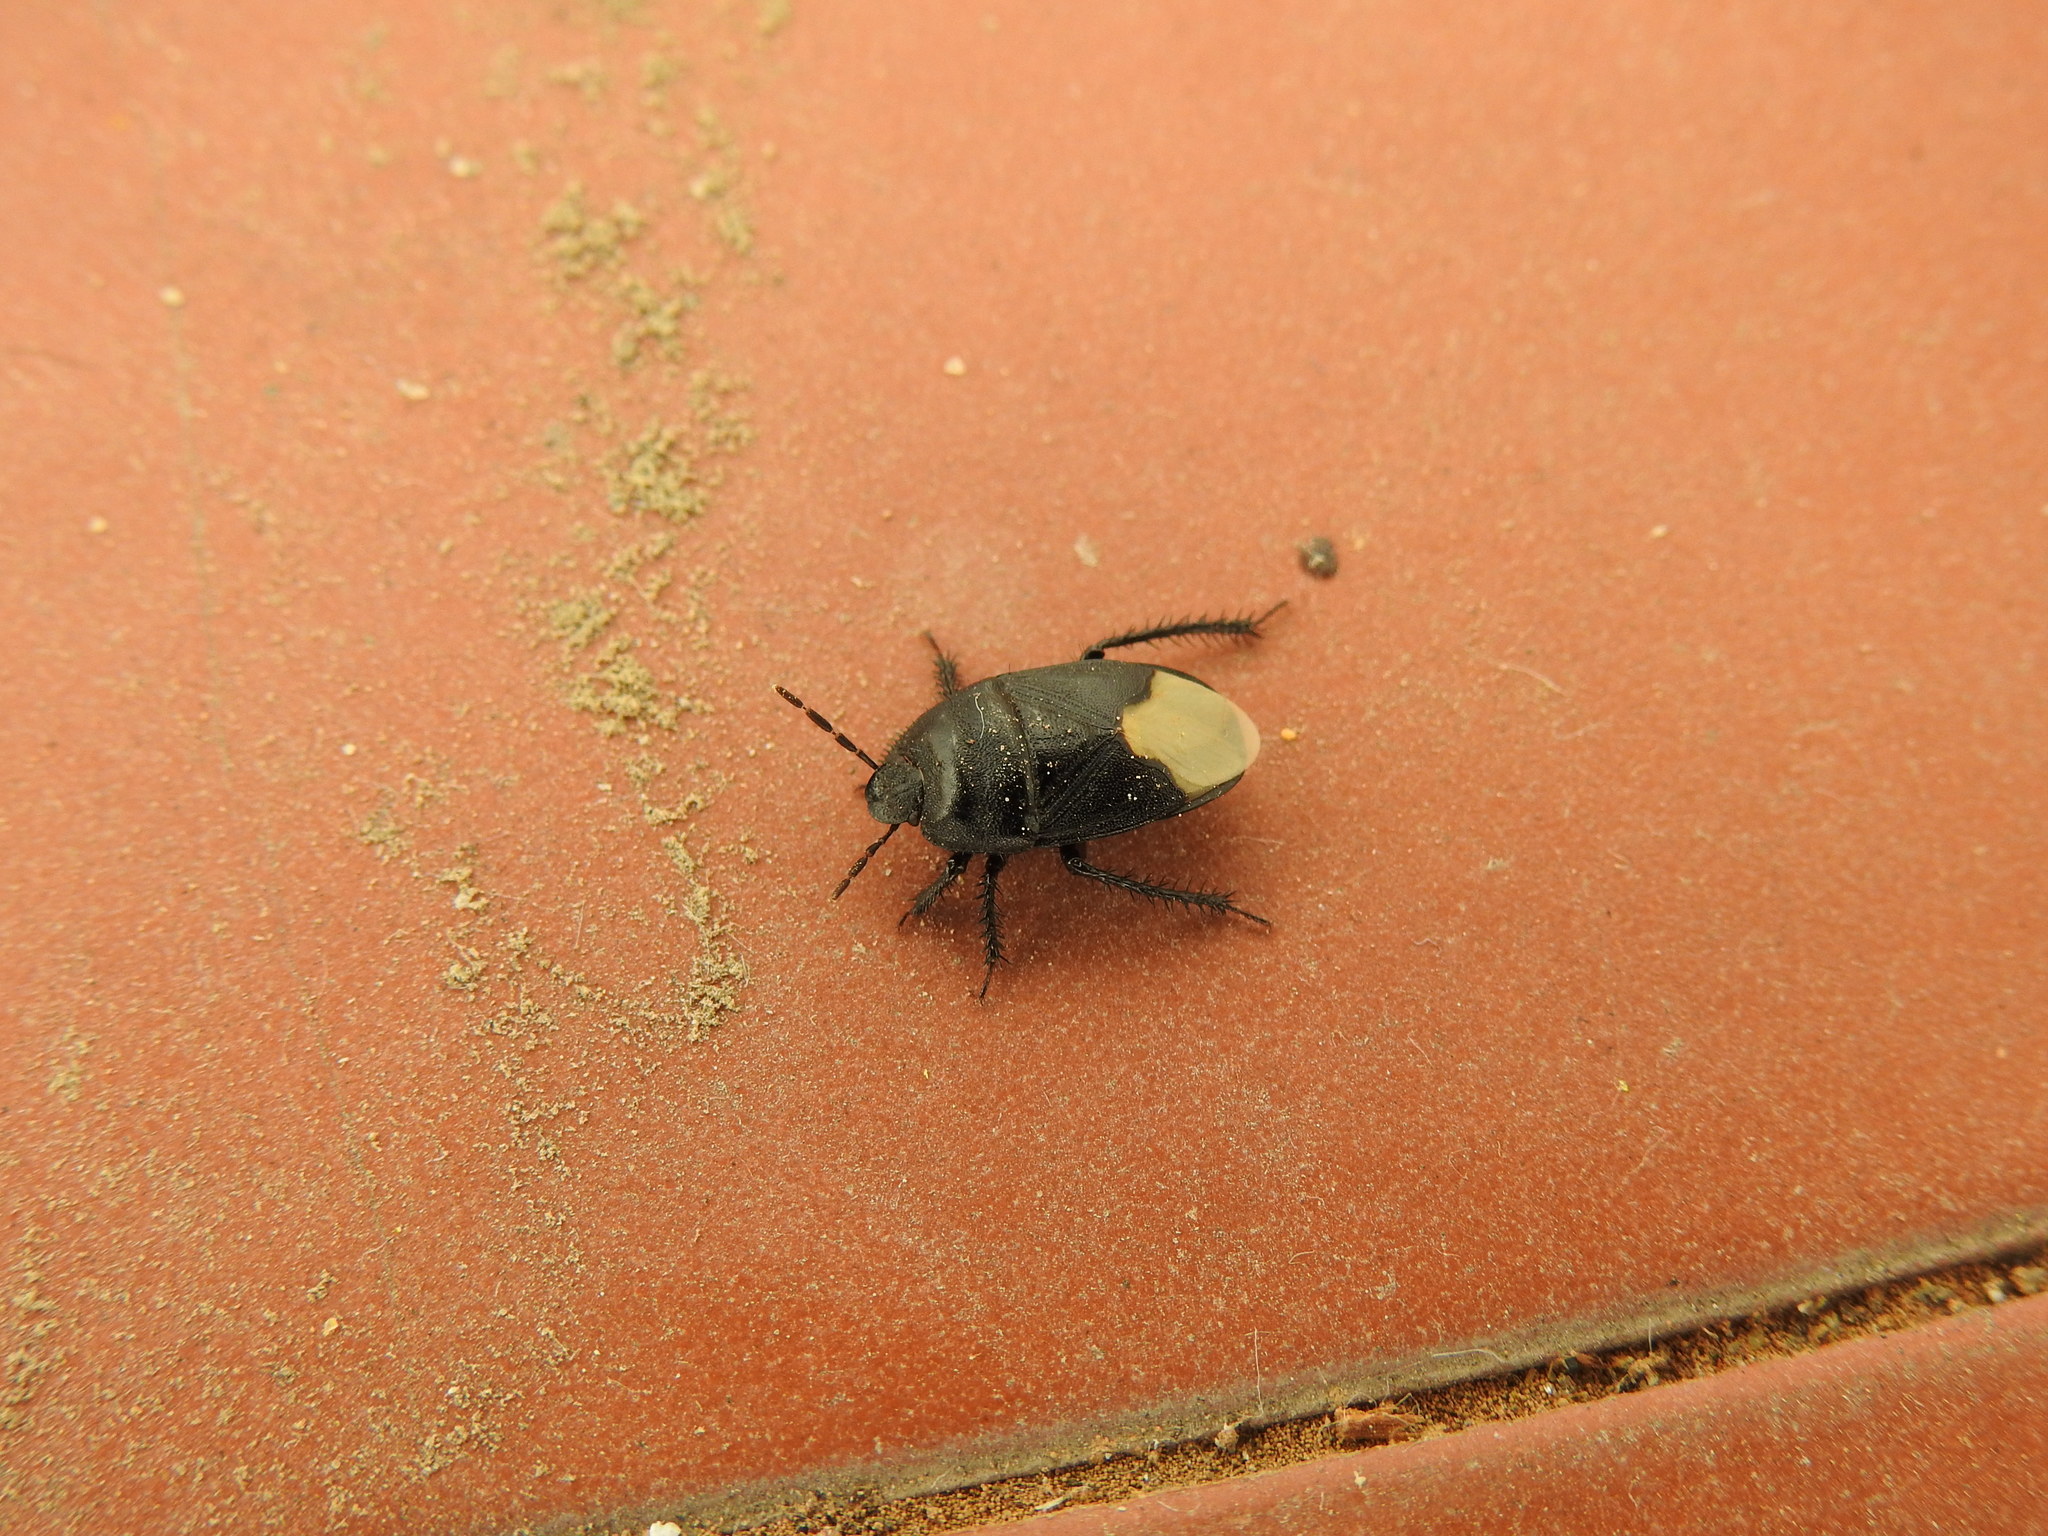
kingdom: Animalia
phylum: Arthropoda
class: Insecta
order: Hemiptera
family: Cydnidae
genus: Cydnus
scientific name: Cydnus aterrimus
